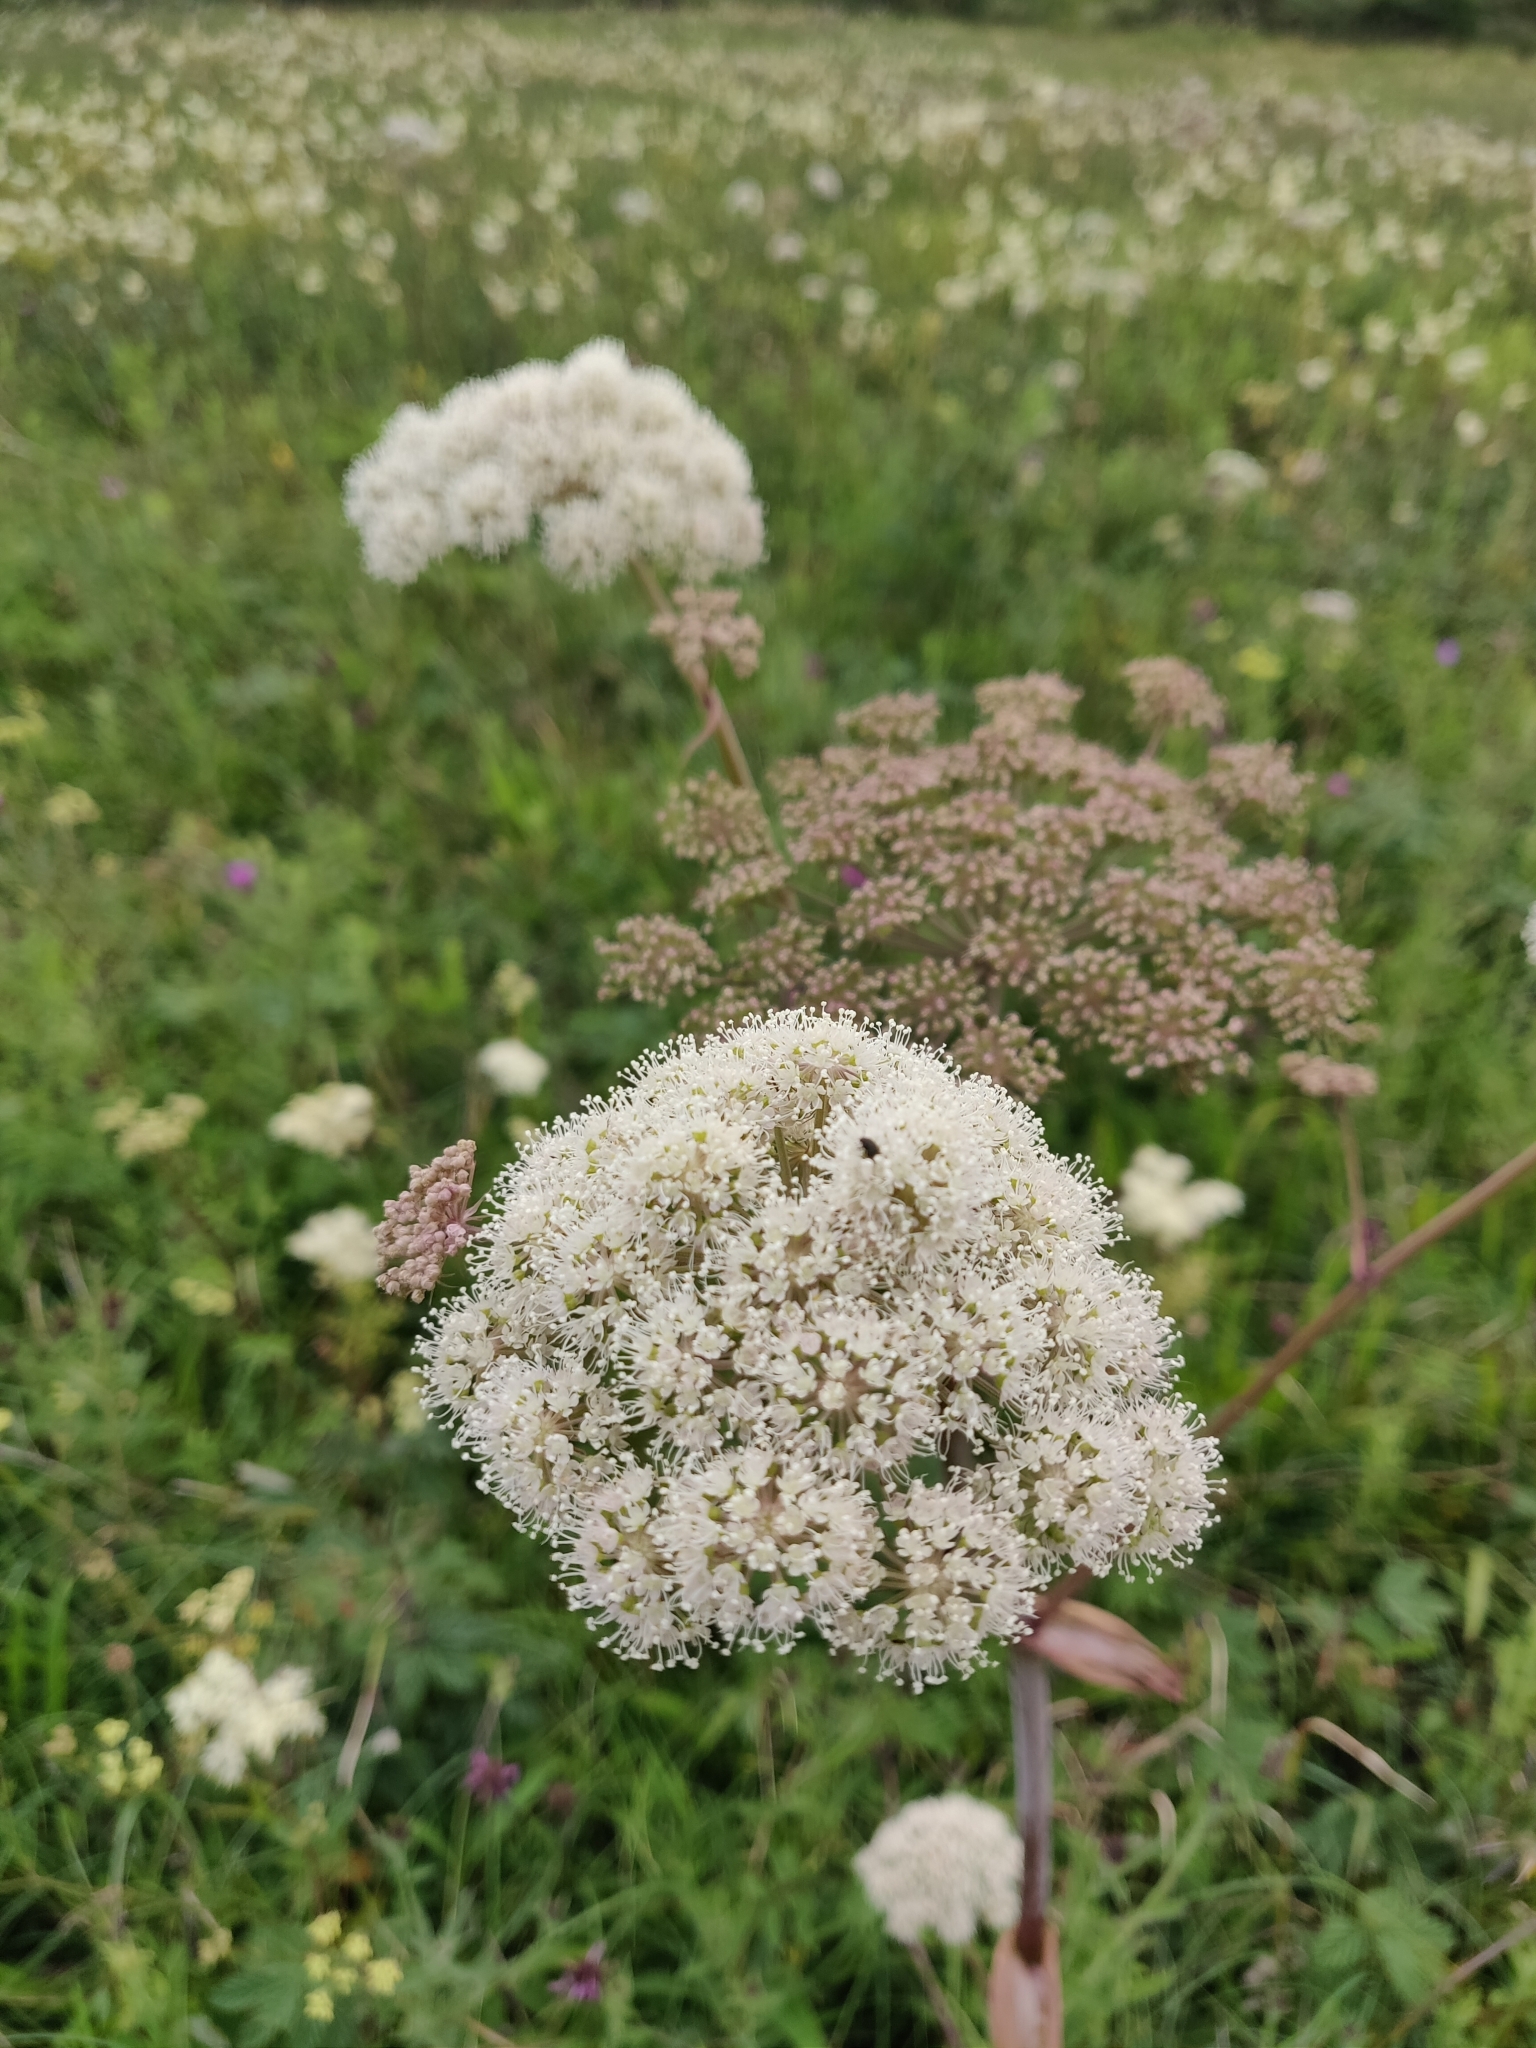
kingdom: Plantae
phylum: Tracheophyta
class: Magnoliopsida
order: Apiales
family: Apiaceae
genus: Angelica
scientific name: Angelica sylvestris
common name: Wild angelica
